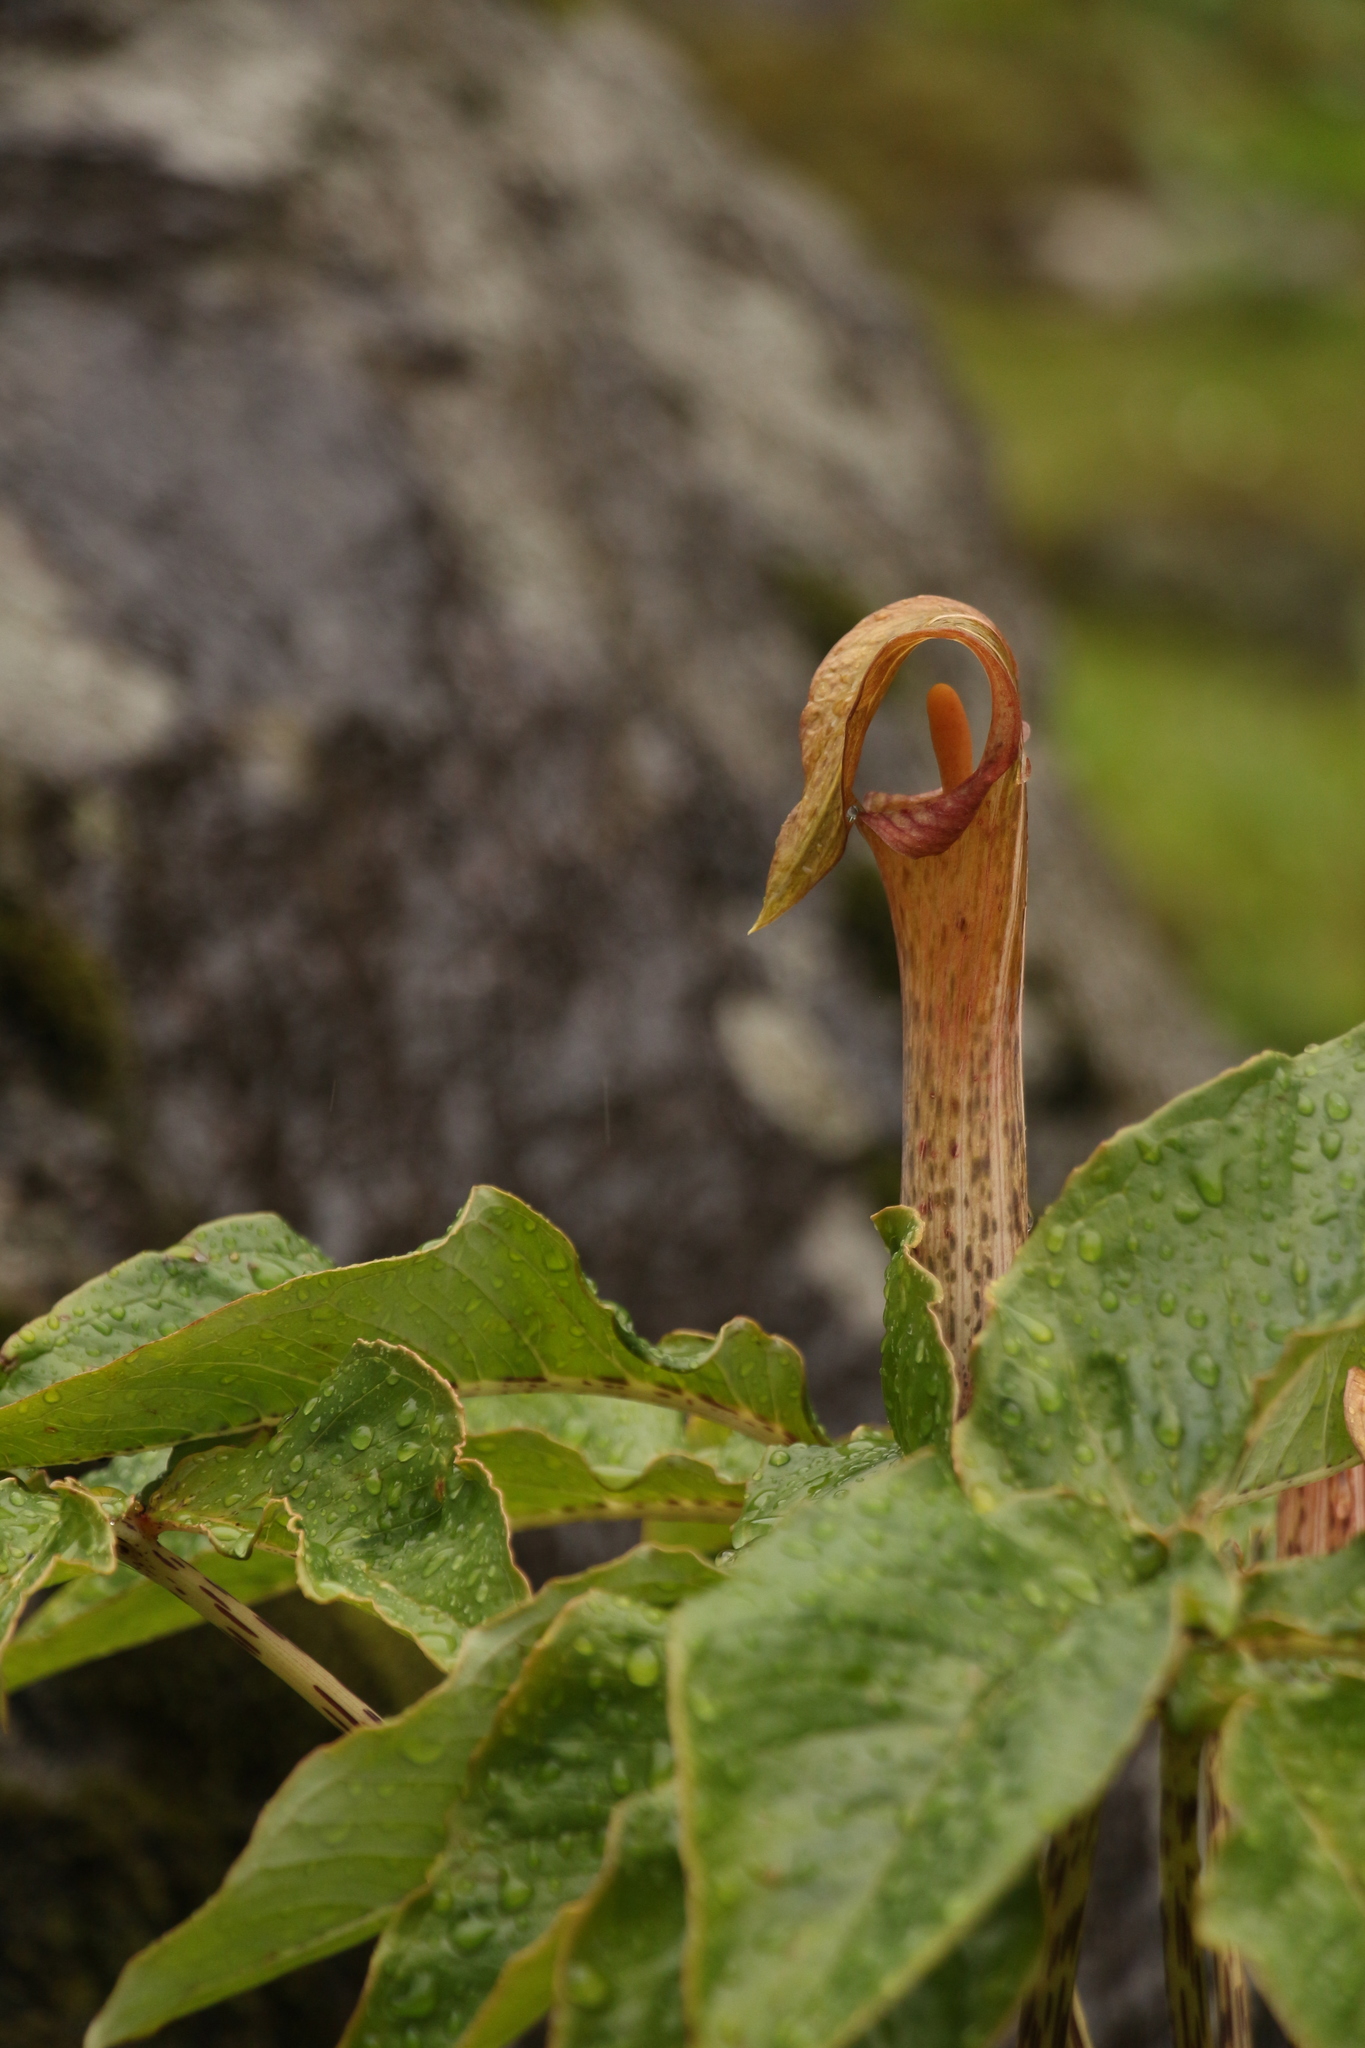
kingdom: Plantae
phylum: Tracheophyta
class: Liliopsida
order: Alismatales
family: Araceae
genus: Arisaema
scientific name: Arisaema nepenthoides
